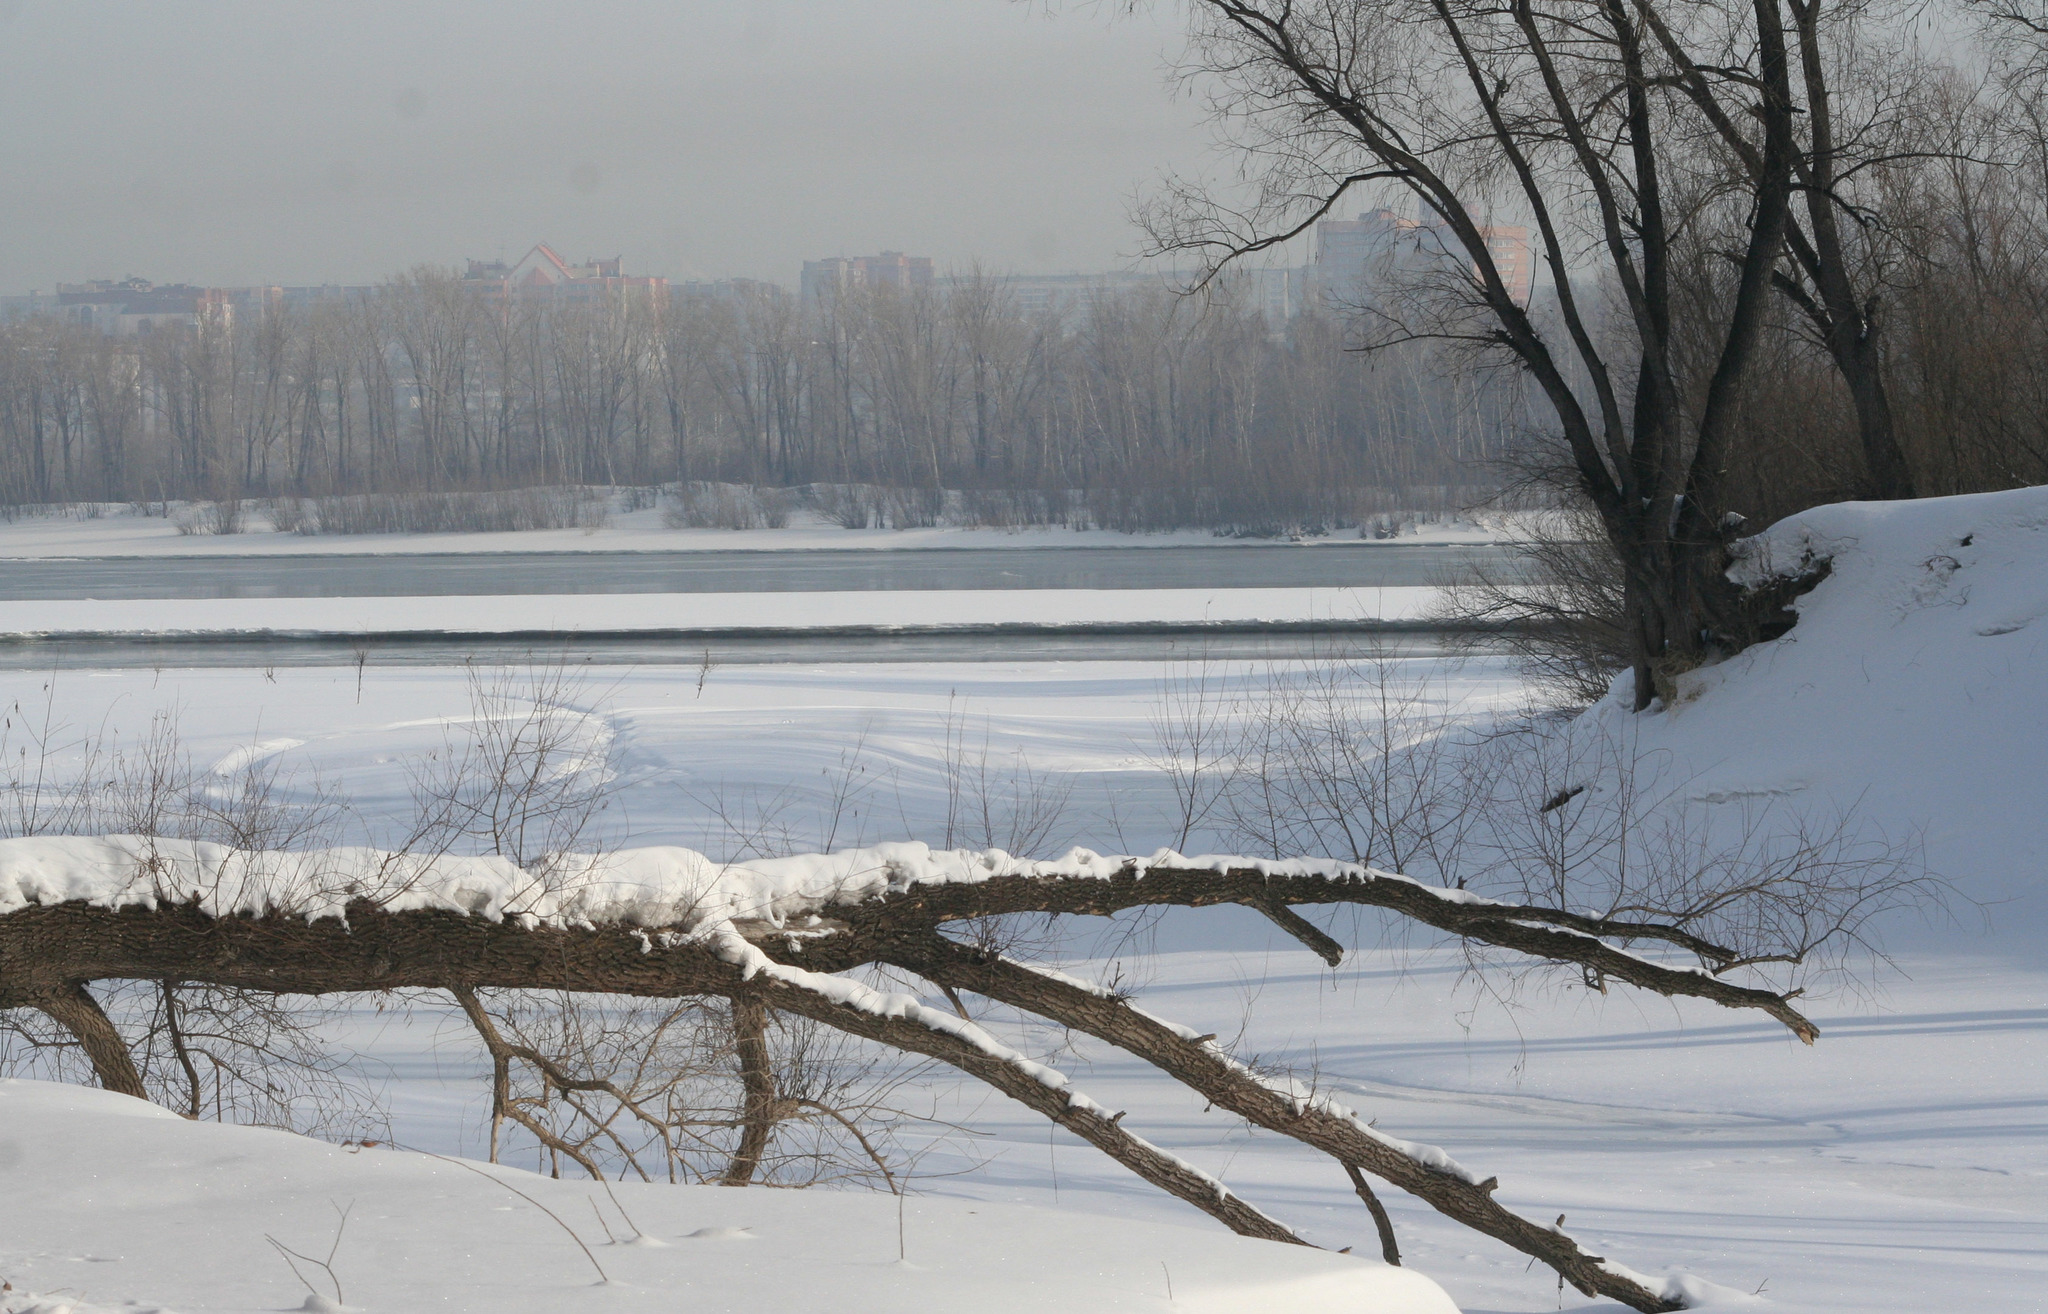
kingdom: Plantae
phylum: Tracheophyta
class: Magnoliopsida
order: Malpighiales
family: Salicaceae
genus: Salix
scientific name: Salix alba
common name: White willow
